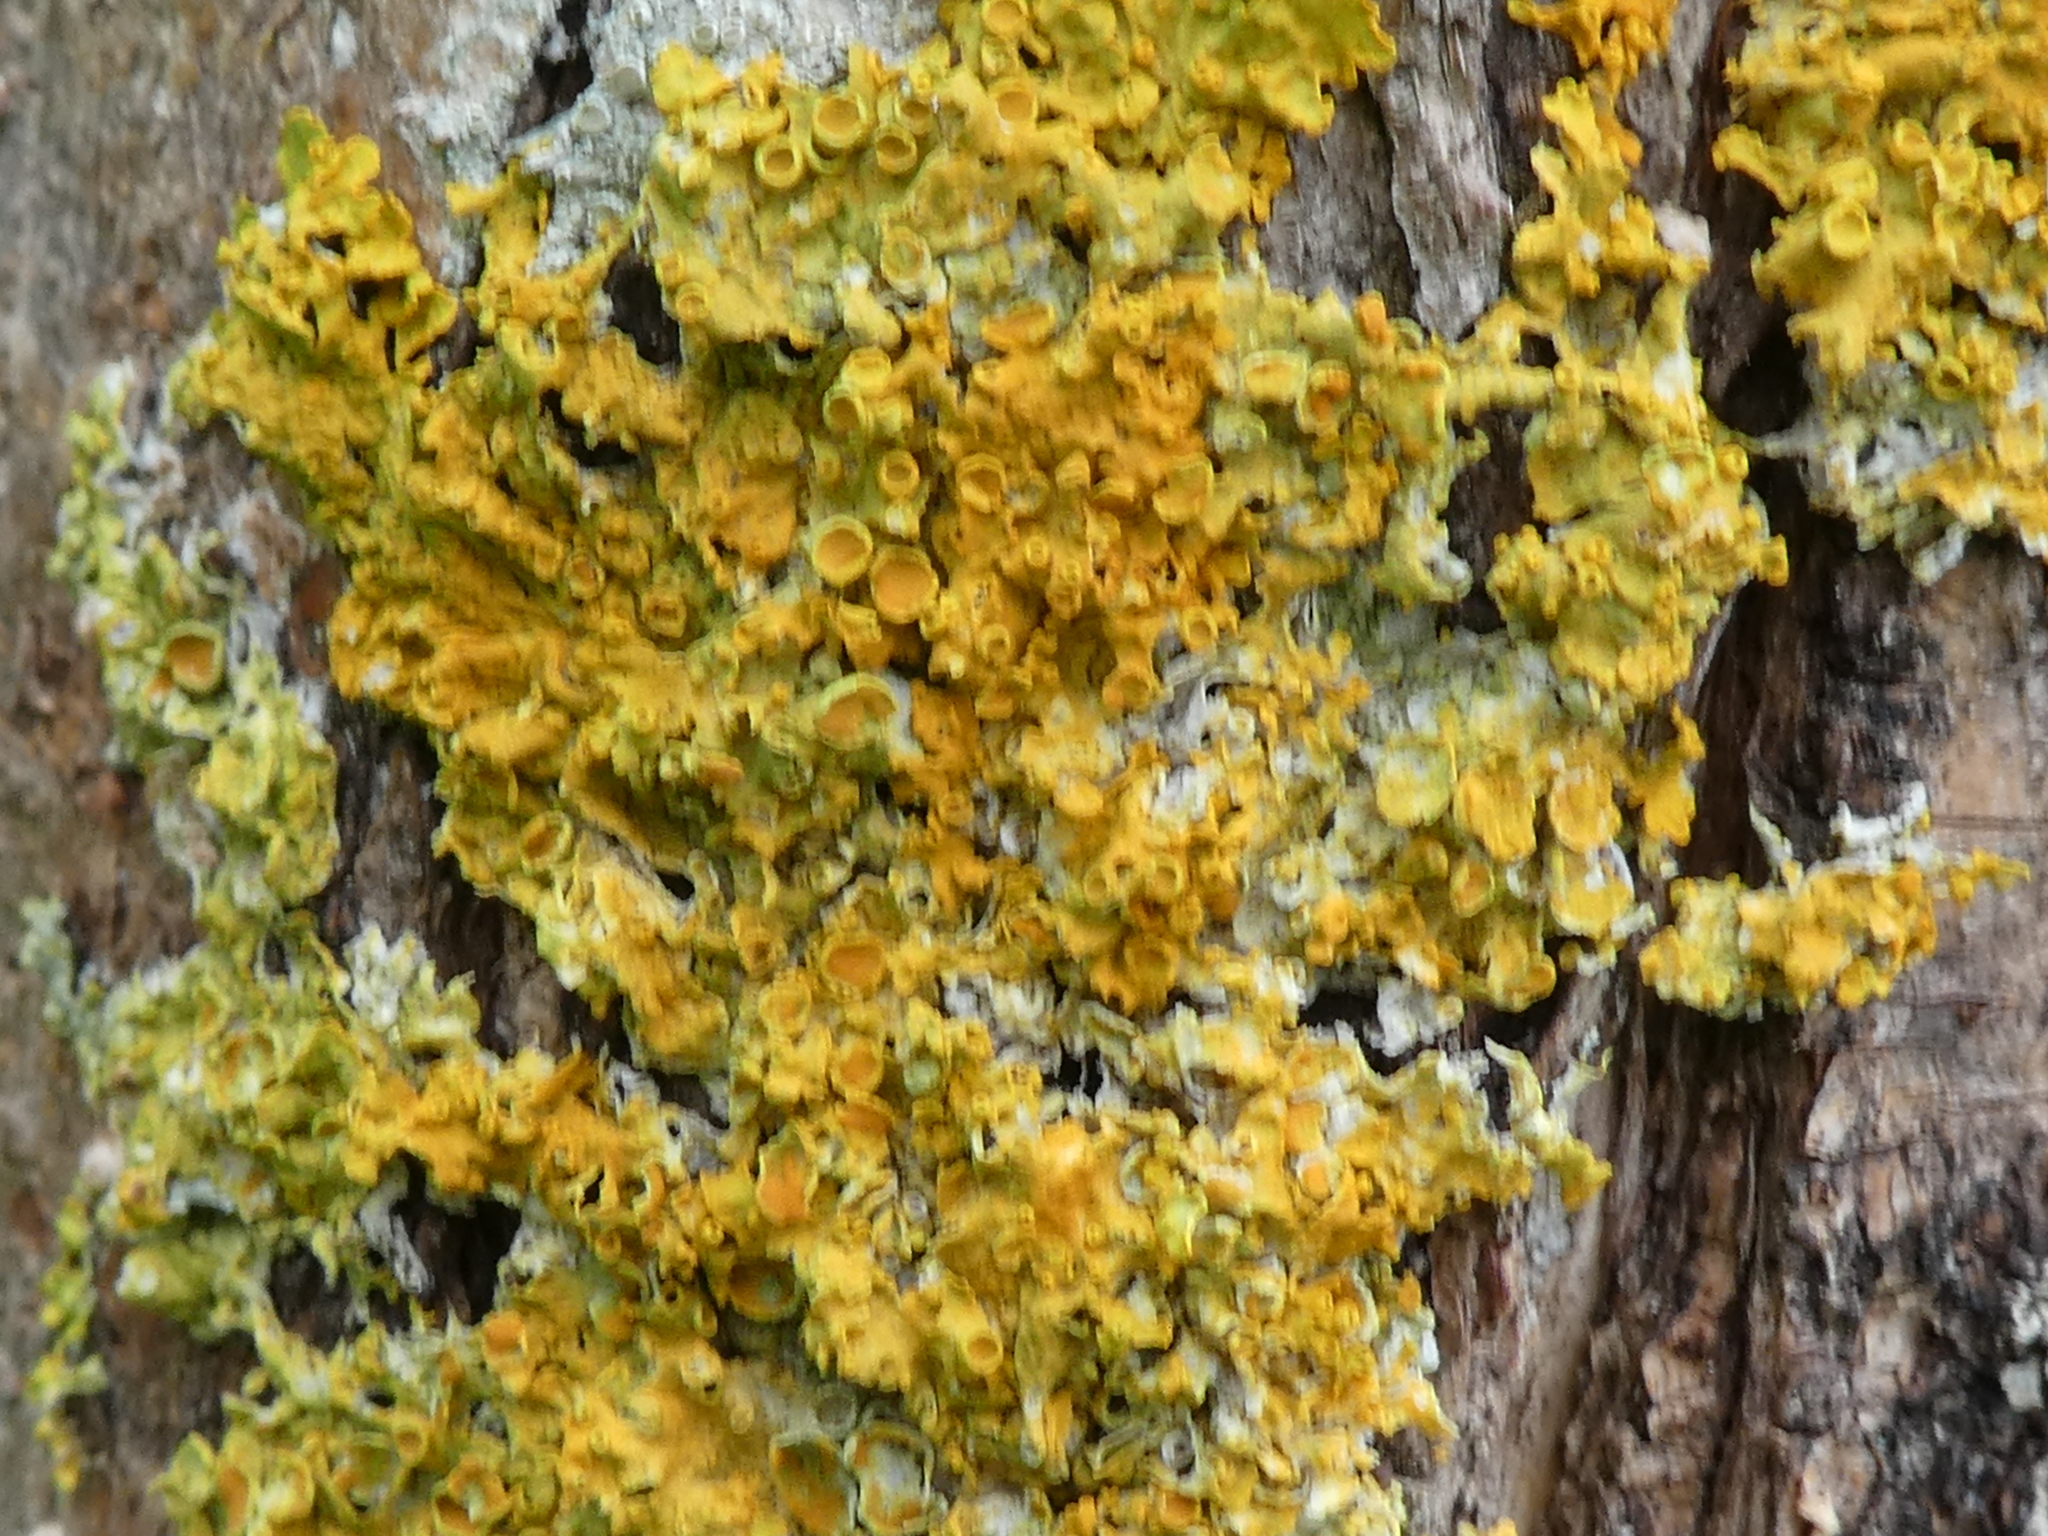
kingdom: Fungi
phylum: Ascomycota
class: Lecanoromycetes
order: Teloschistales
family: Teloschistaceae
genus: Xanthoria
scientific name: Xanthoria parietina
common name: Common orange lichen
